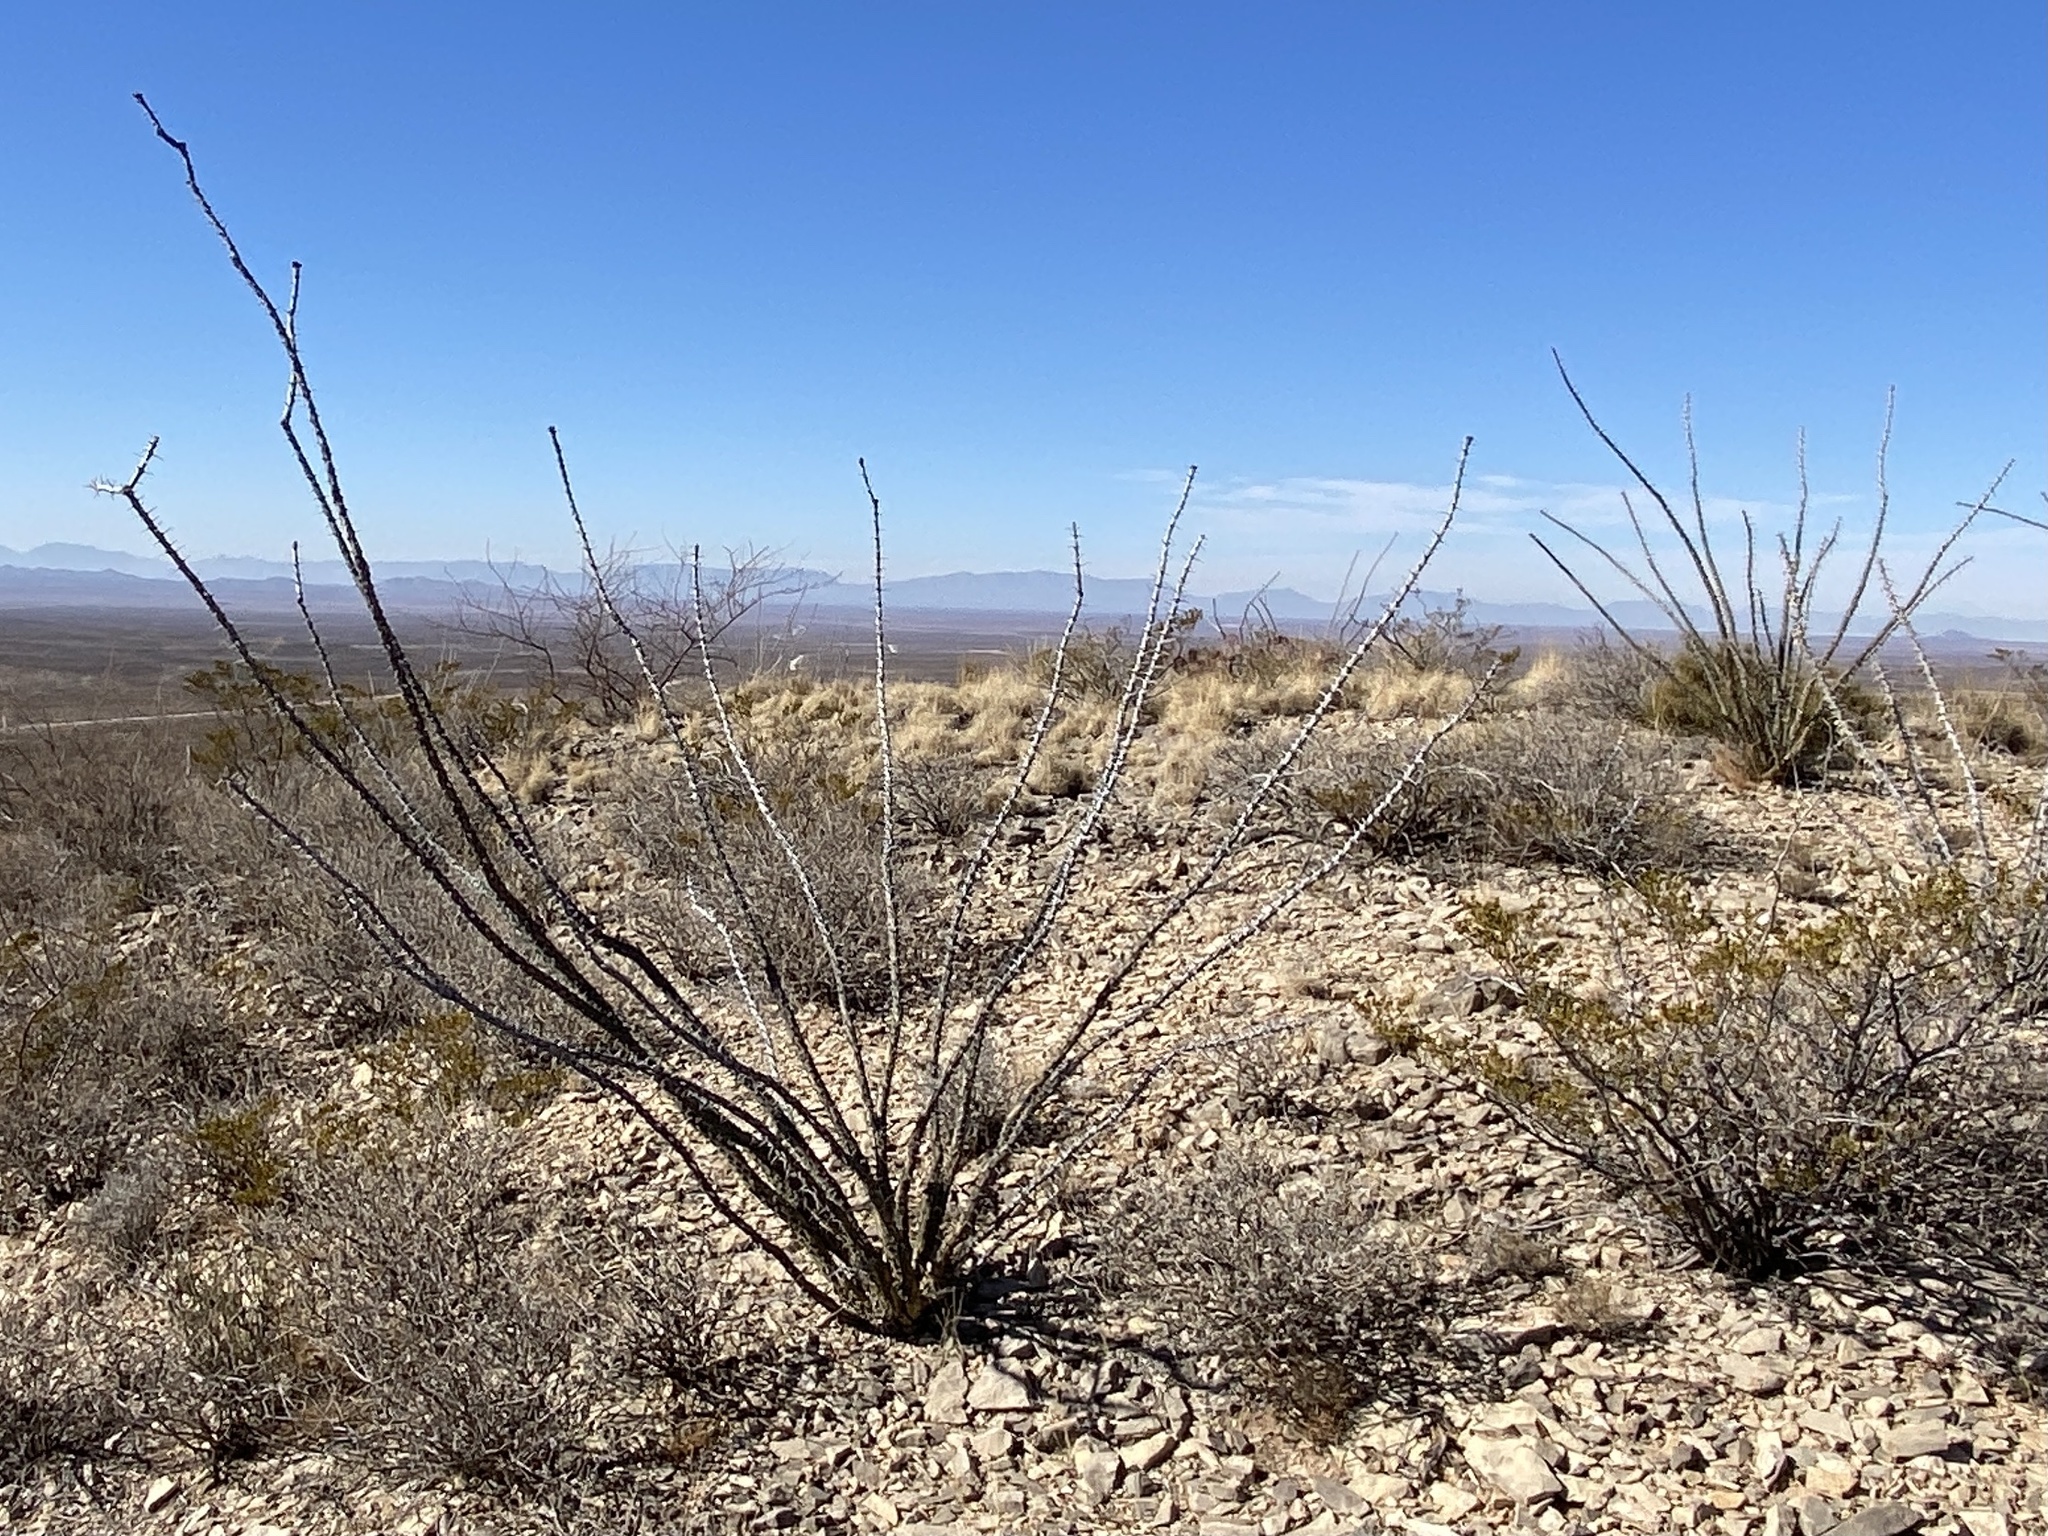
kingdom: Plantae
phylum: Tracheophyta
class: Magnoliopsida
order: Ericales
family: Fouquieriaceae
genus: Fouquieria
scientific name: Fouquieria splendens
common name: Vine-cactus
